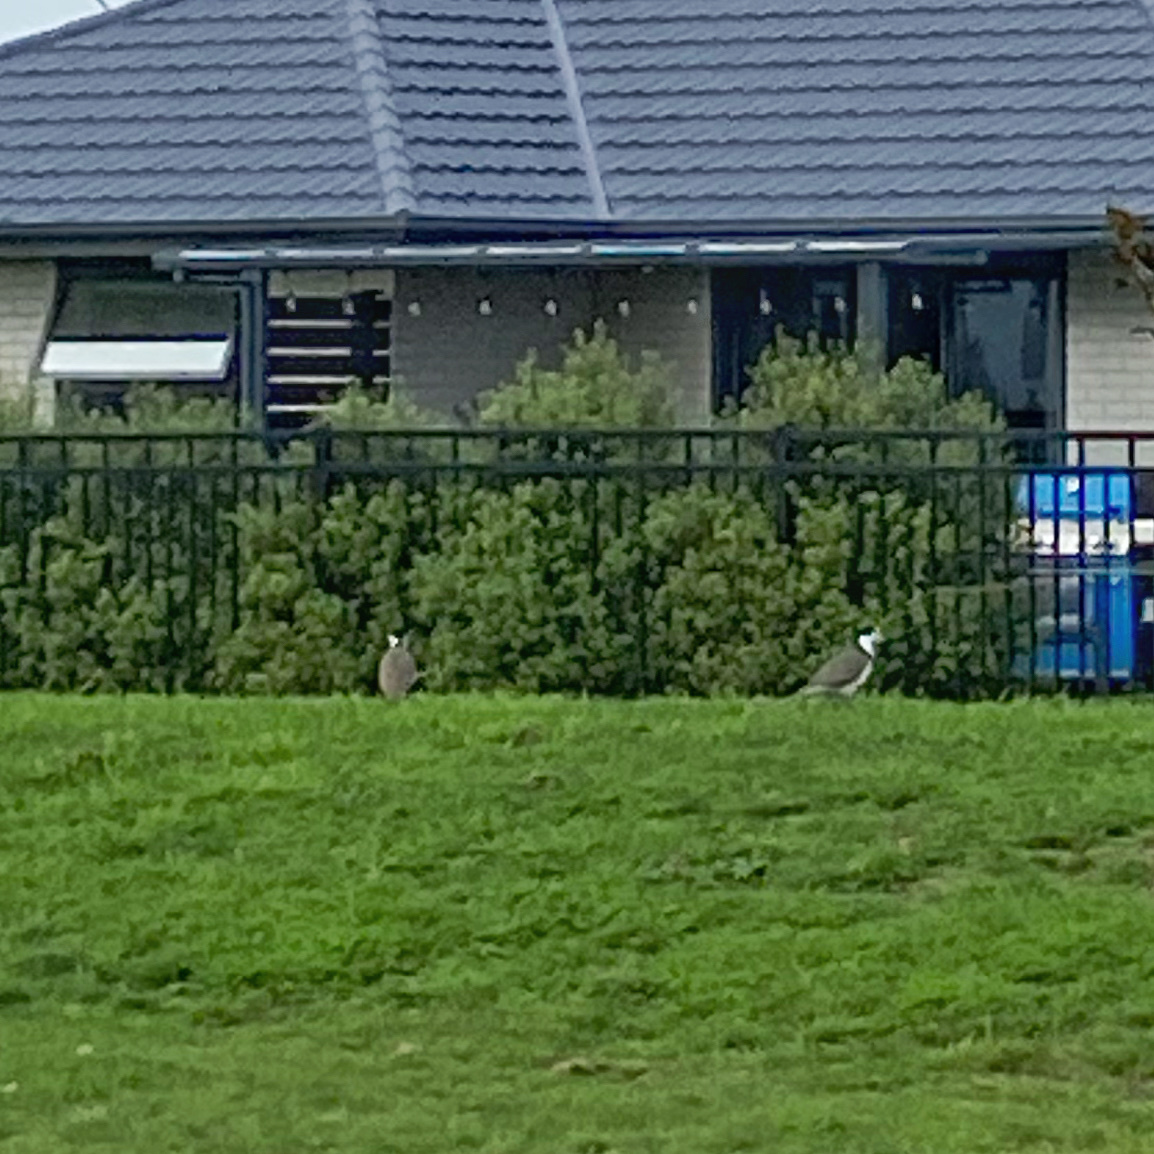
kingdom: Animalia
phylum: Chordata
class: Aves
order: Charadriiformes
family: Charadriidae
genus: Vanellus
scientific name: Vanellus miles
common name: Masked lapwing
